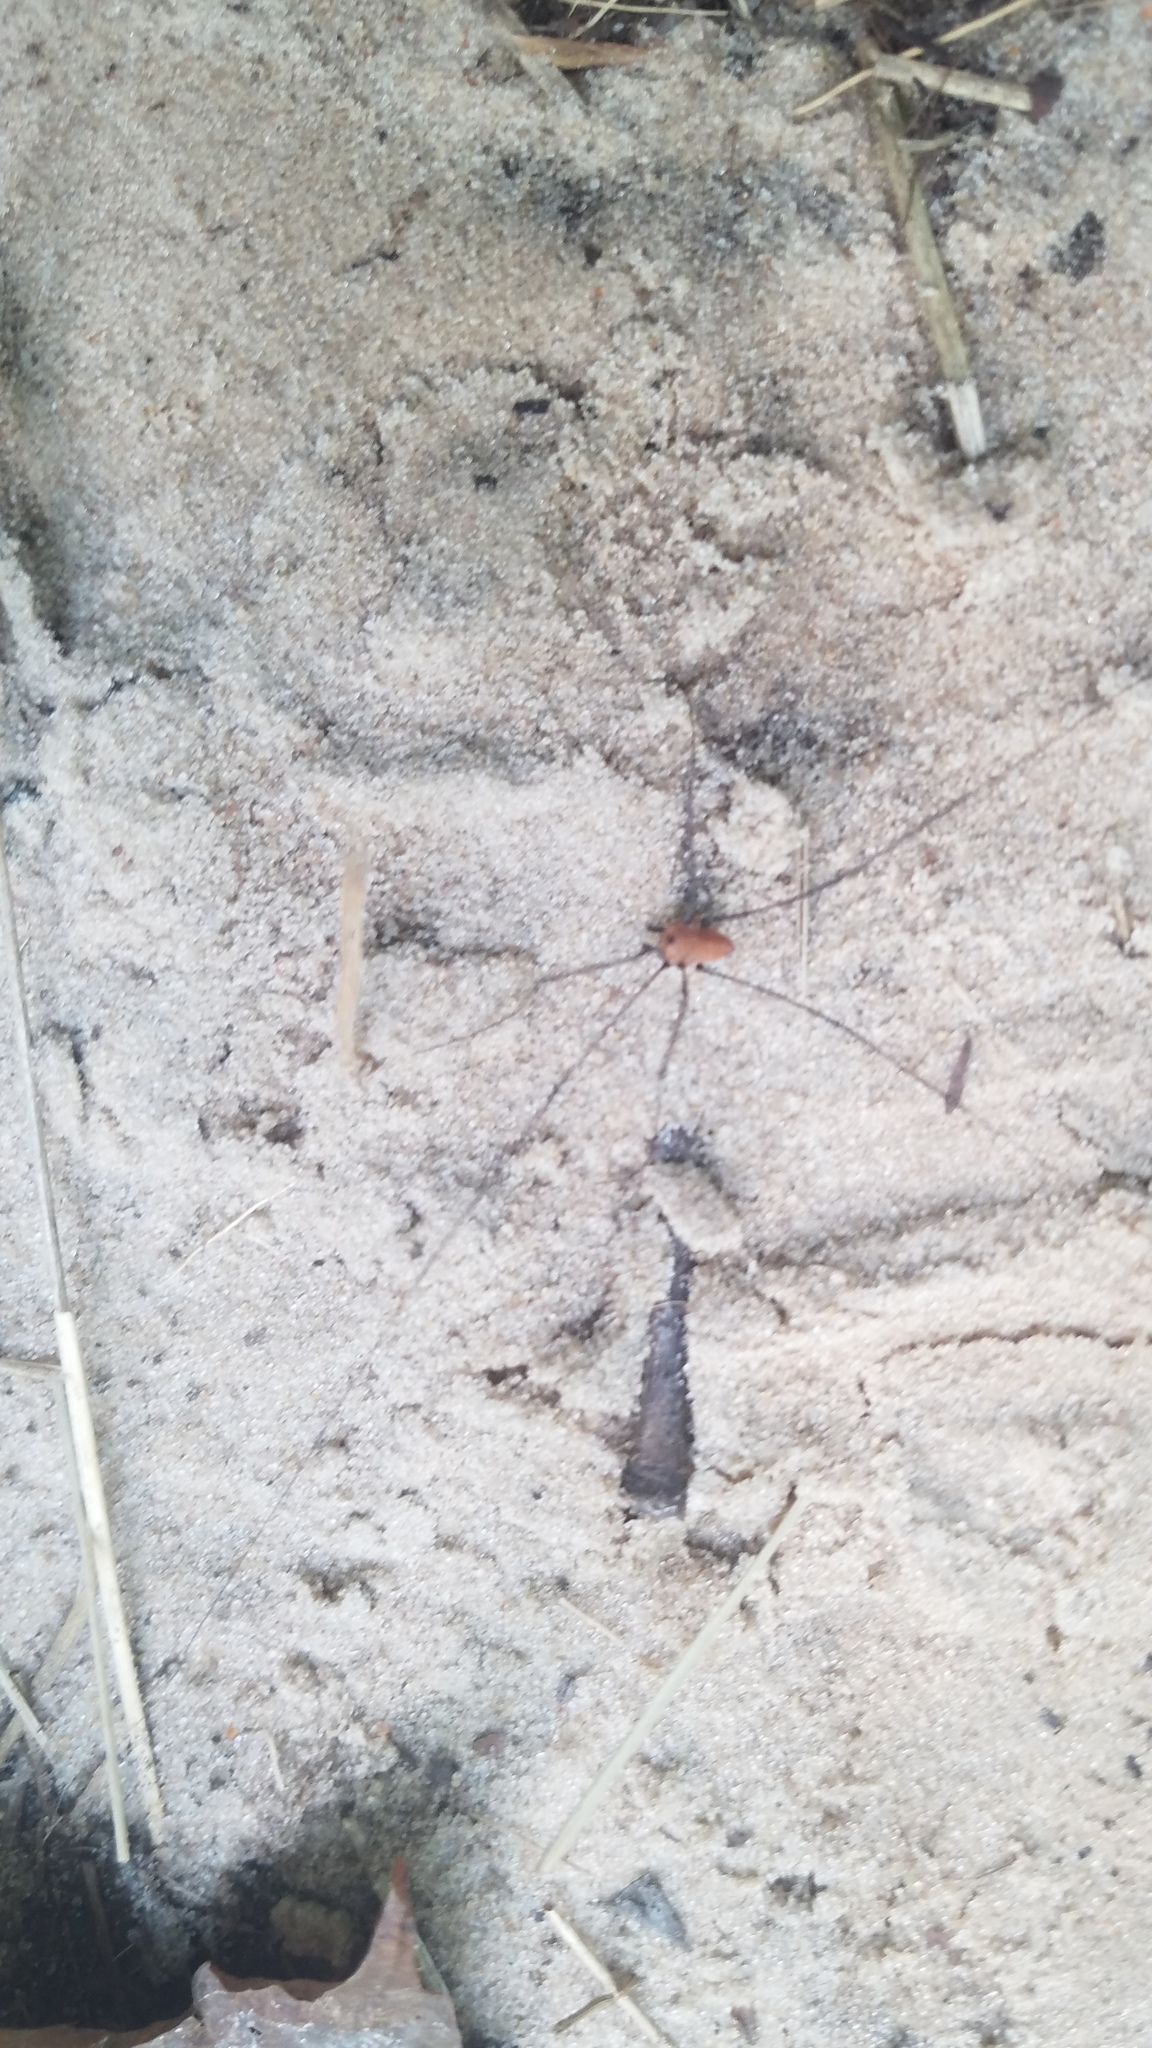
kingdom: Animalia
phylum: Arthropoda
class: Arachnida
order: Opiliones
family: Sclerosomatidae
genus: Leiobunum
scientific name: Leiobunum vittatum
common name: Eastern harvestman
